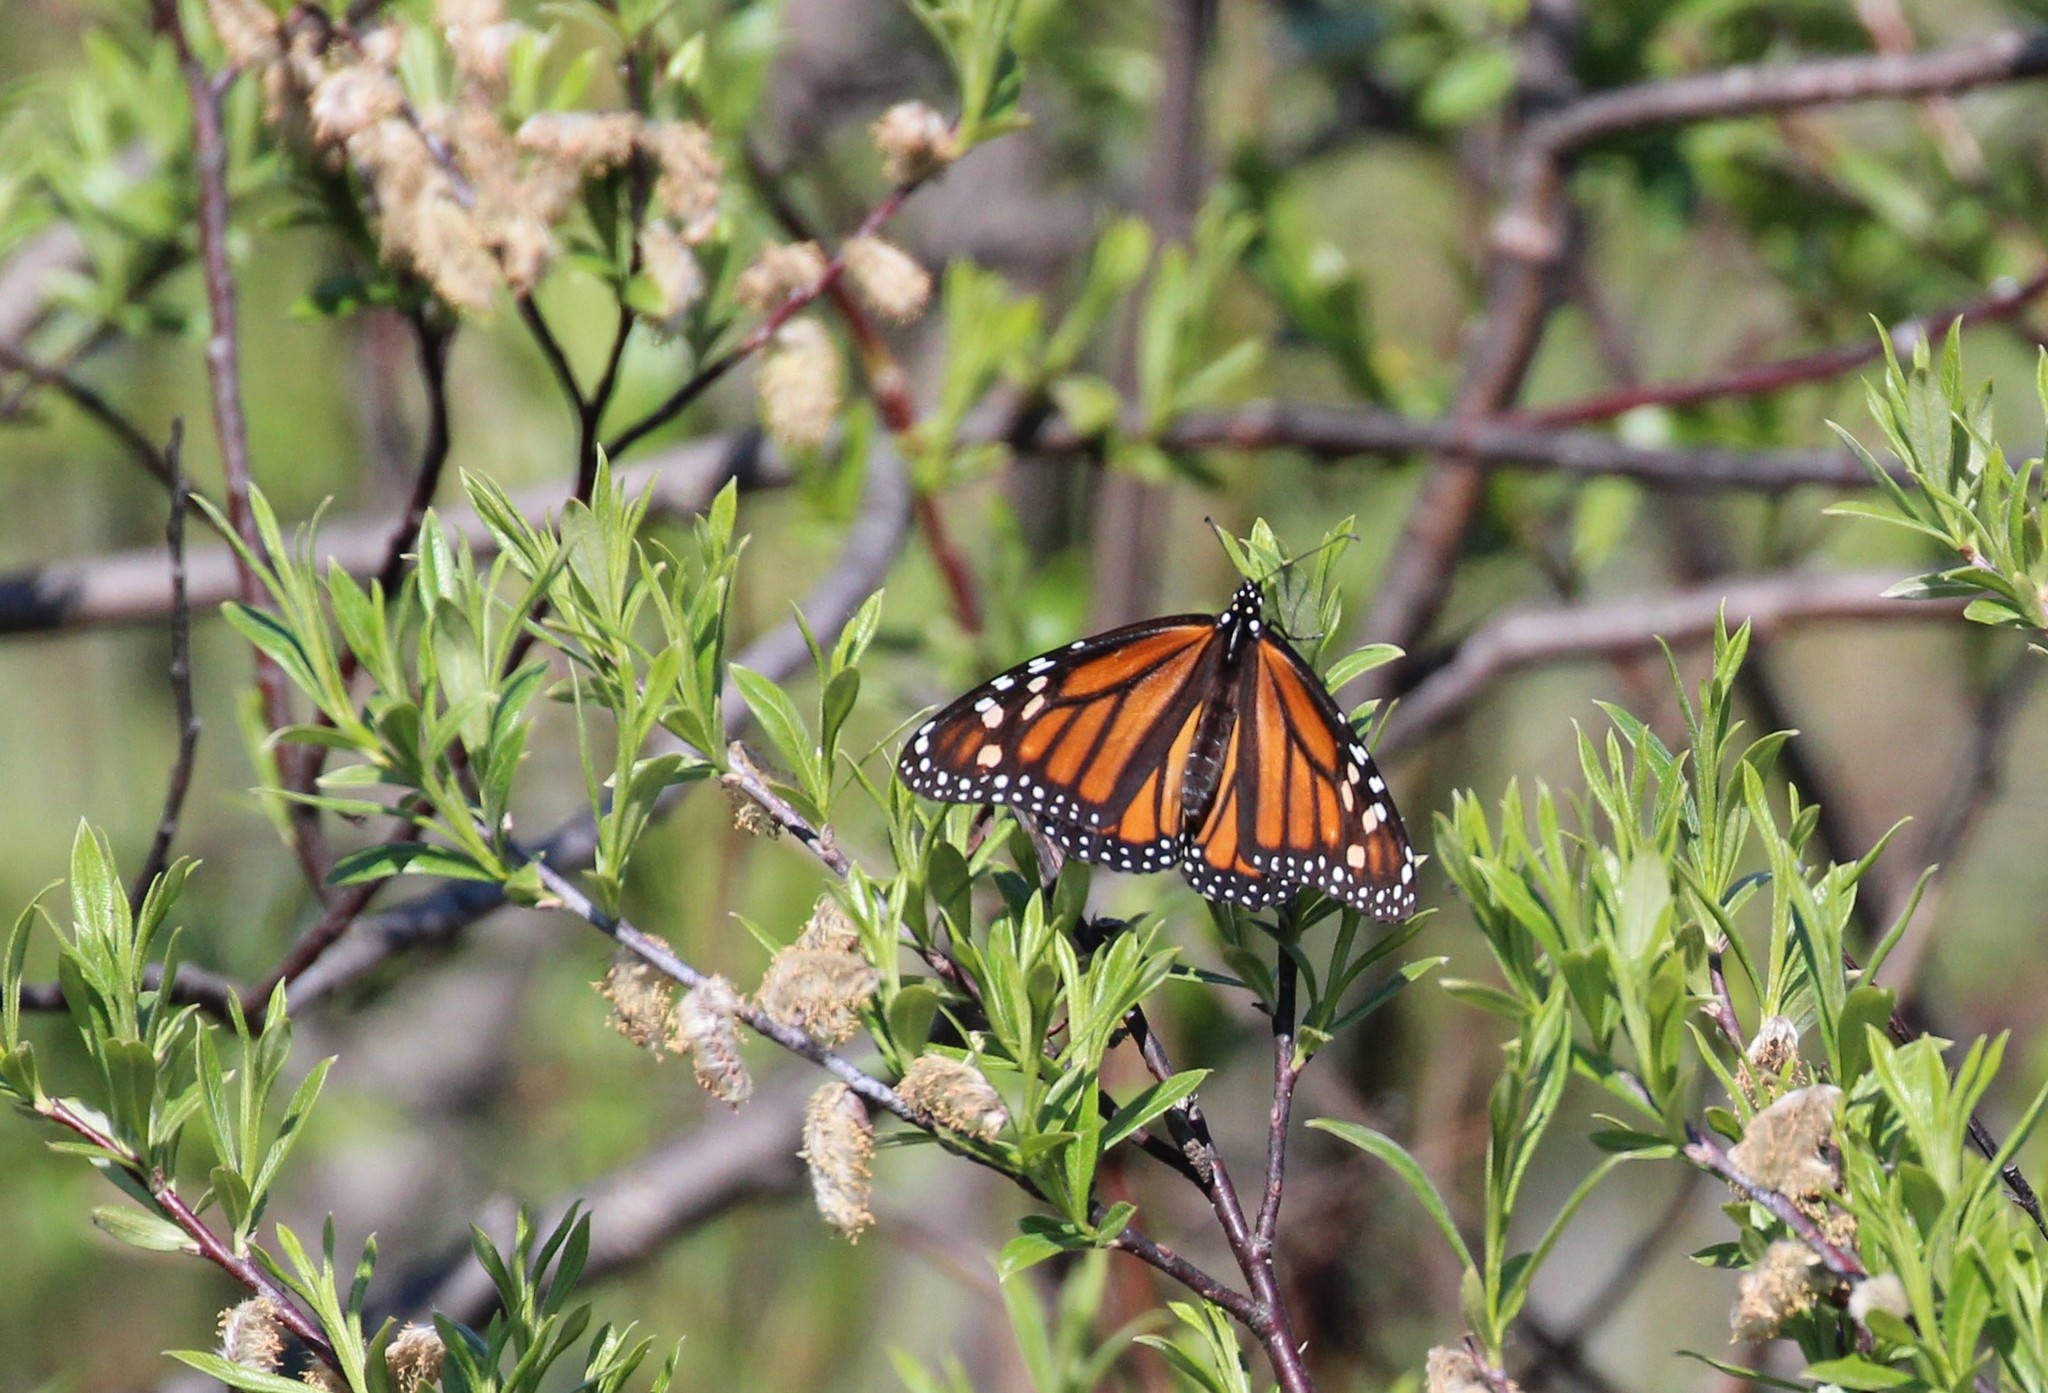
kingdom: Animalia
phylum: Arthropoda
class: Insecta
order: Lepidoptera
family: Nymphalidae
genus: Danaus
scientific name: Danaus plexippus
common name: Monarch
